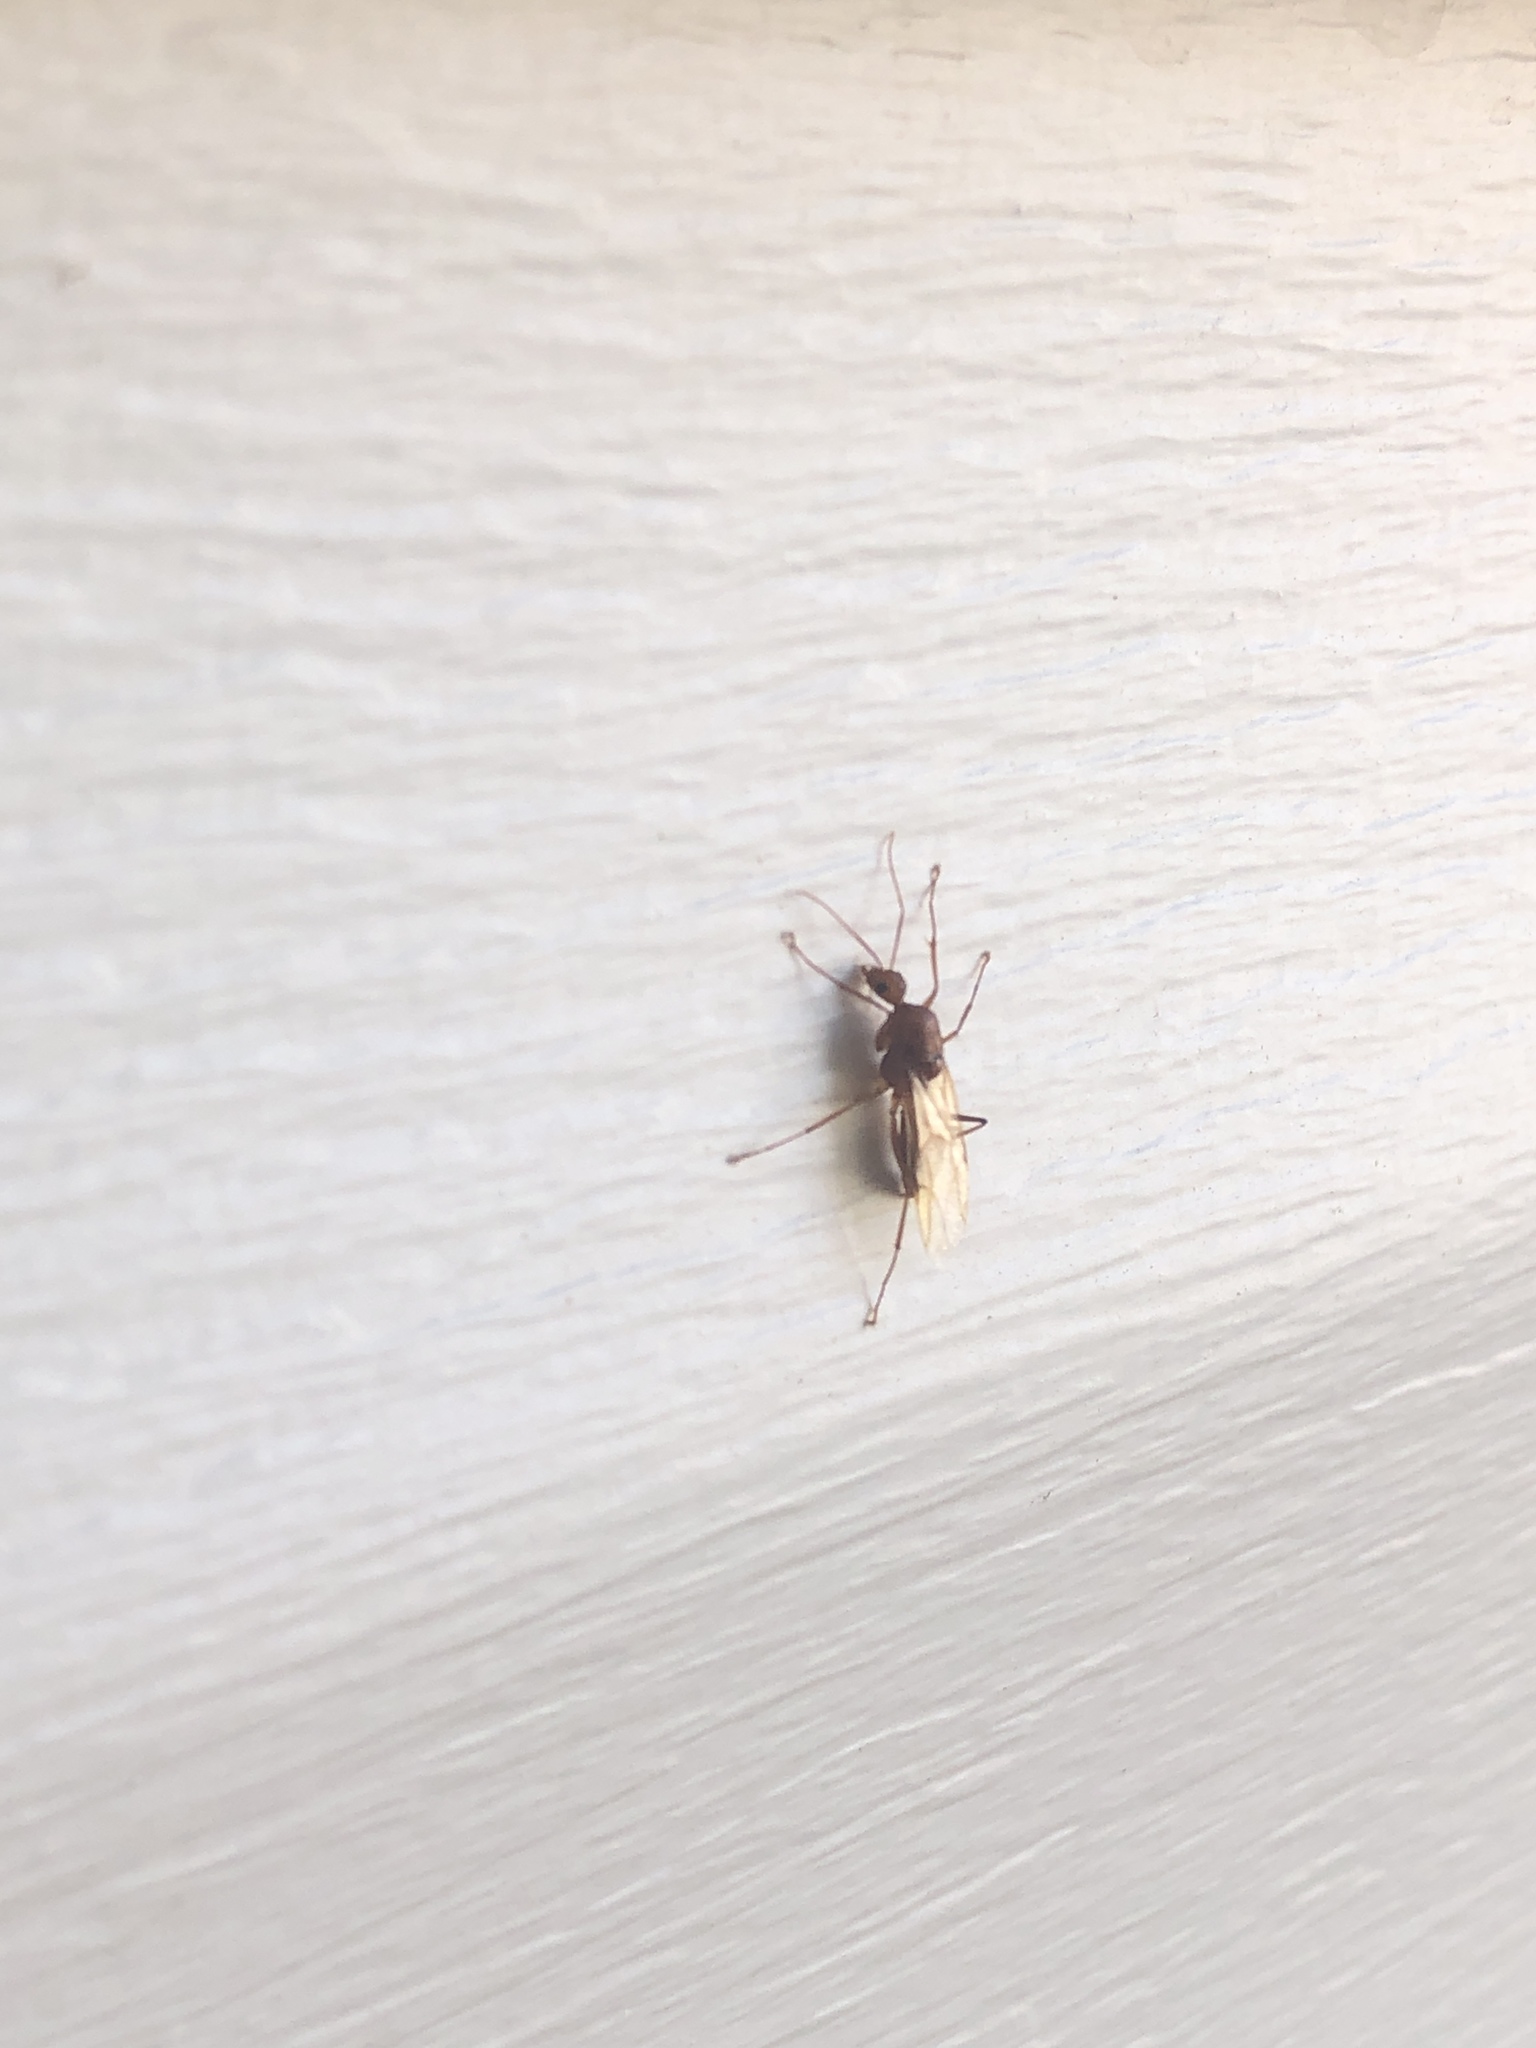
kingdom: Animalia
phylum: Arthropoda
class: Insecta
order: Hymenoptera
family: Formicidae
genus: Camponotus
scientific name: Camponotus castaneus
